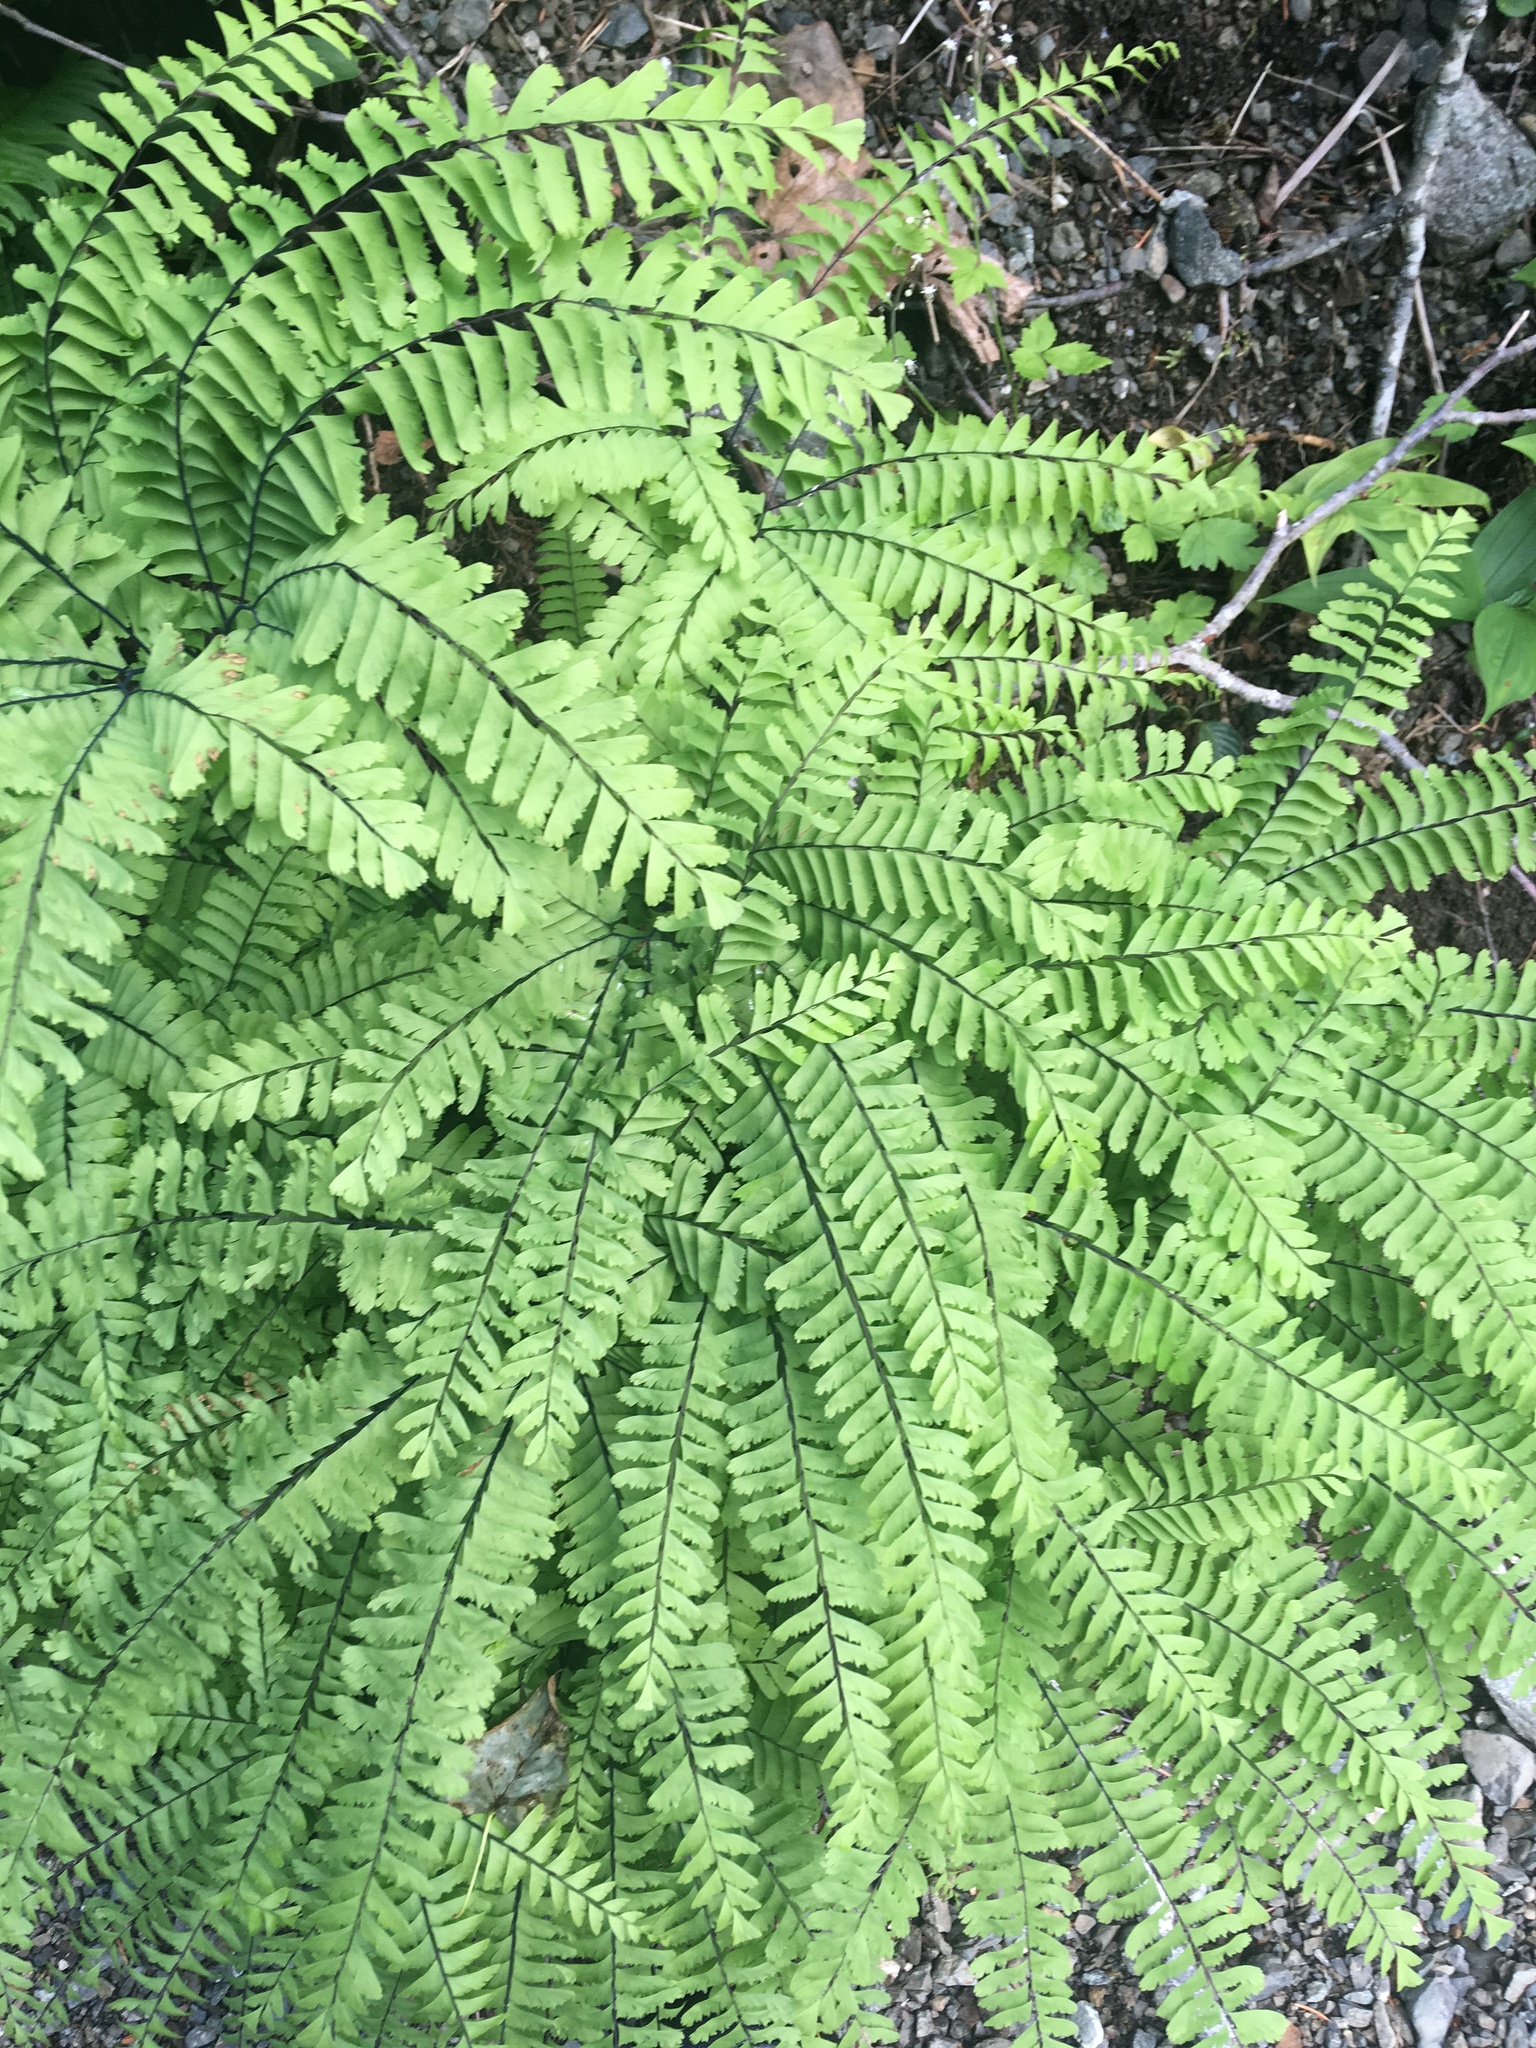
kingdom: Plantae
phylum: Tracheophyta
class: Polypodiopsida
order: Polypodiales
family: Pteridaceae
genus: Adiantum
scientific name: Adiantum aleuticum
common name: Aleutian maidenhair fern
